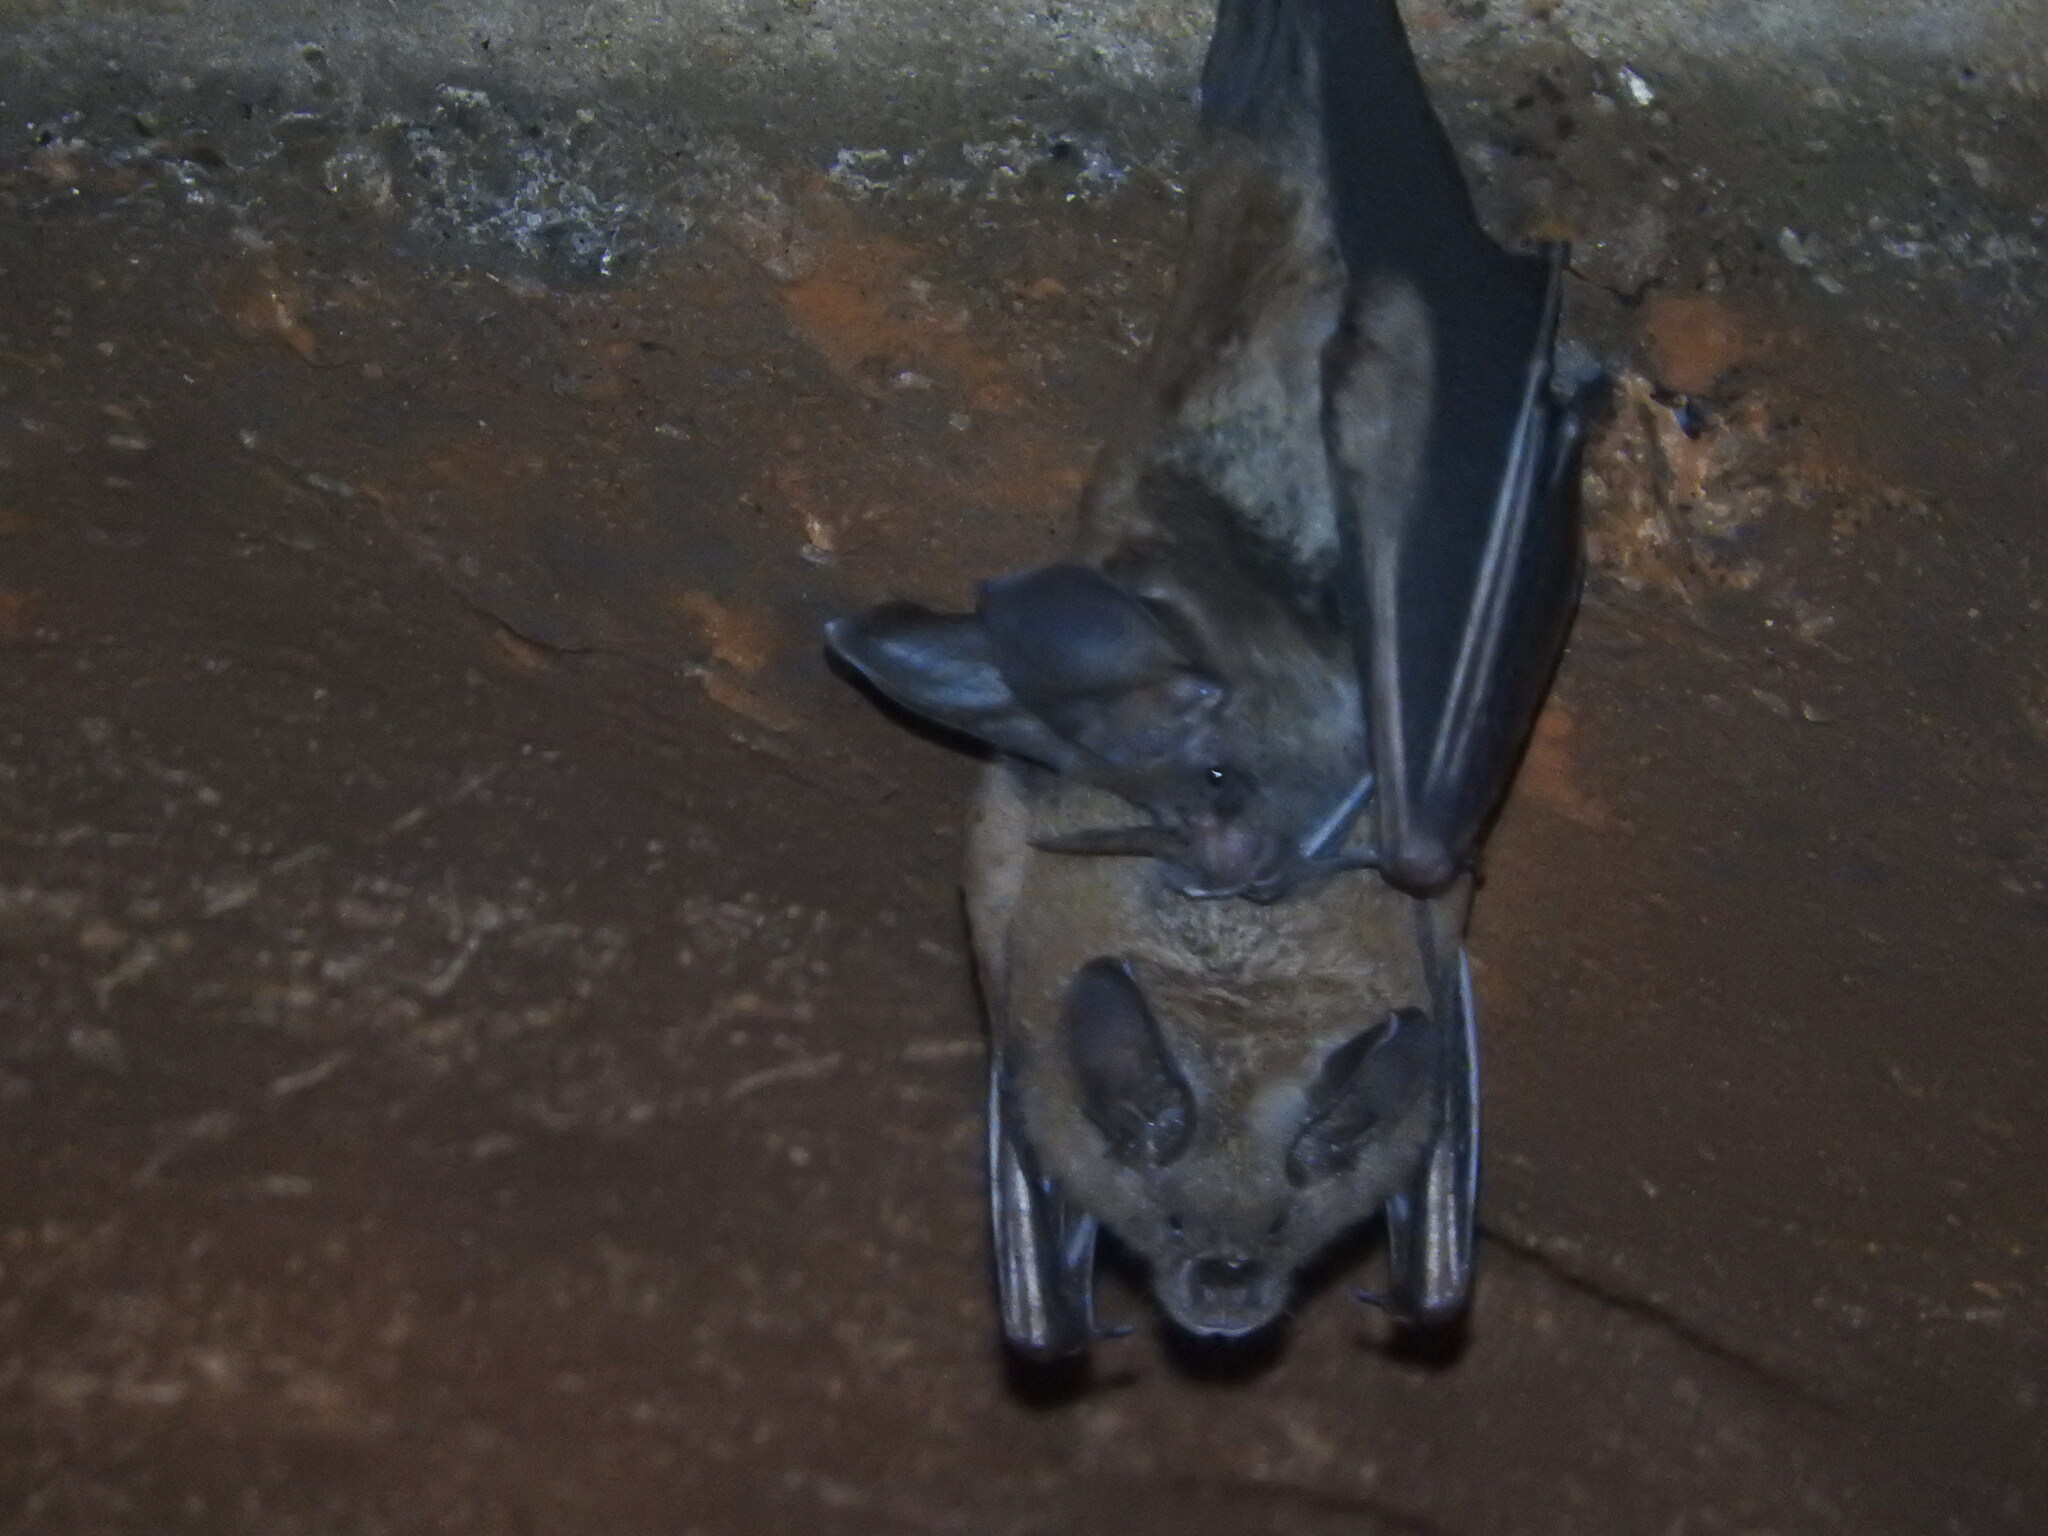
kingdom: Animalia
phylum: Chordata
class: Mammalia
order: Chiroptera
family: Phyllostomidae
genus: Mimon
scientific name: Mimon cozumelae
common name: Cozumelan golden bat
